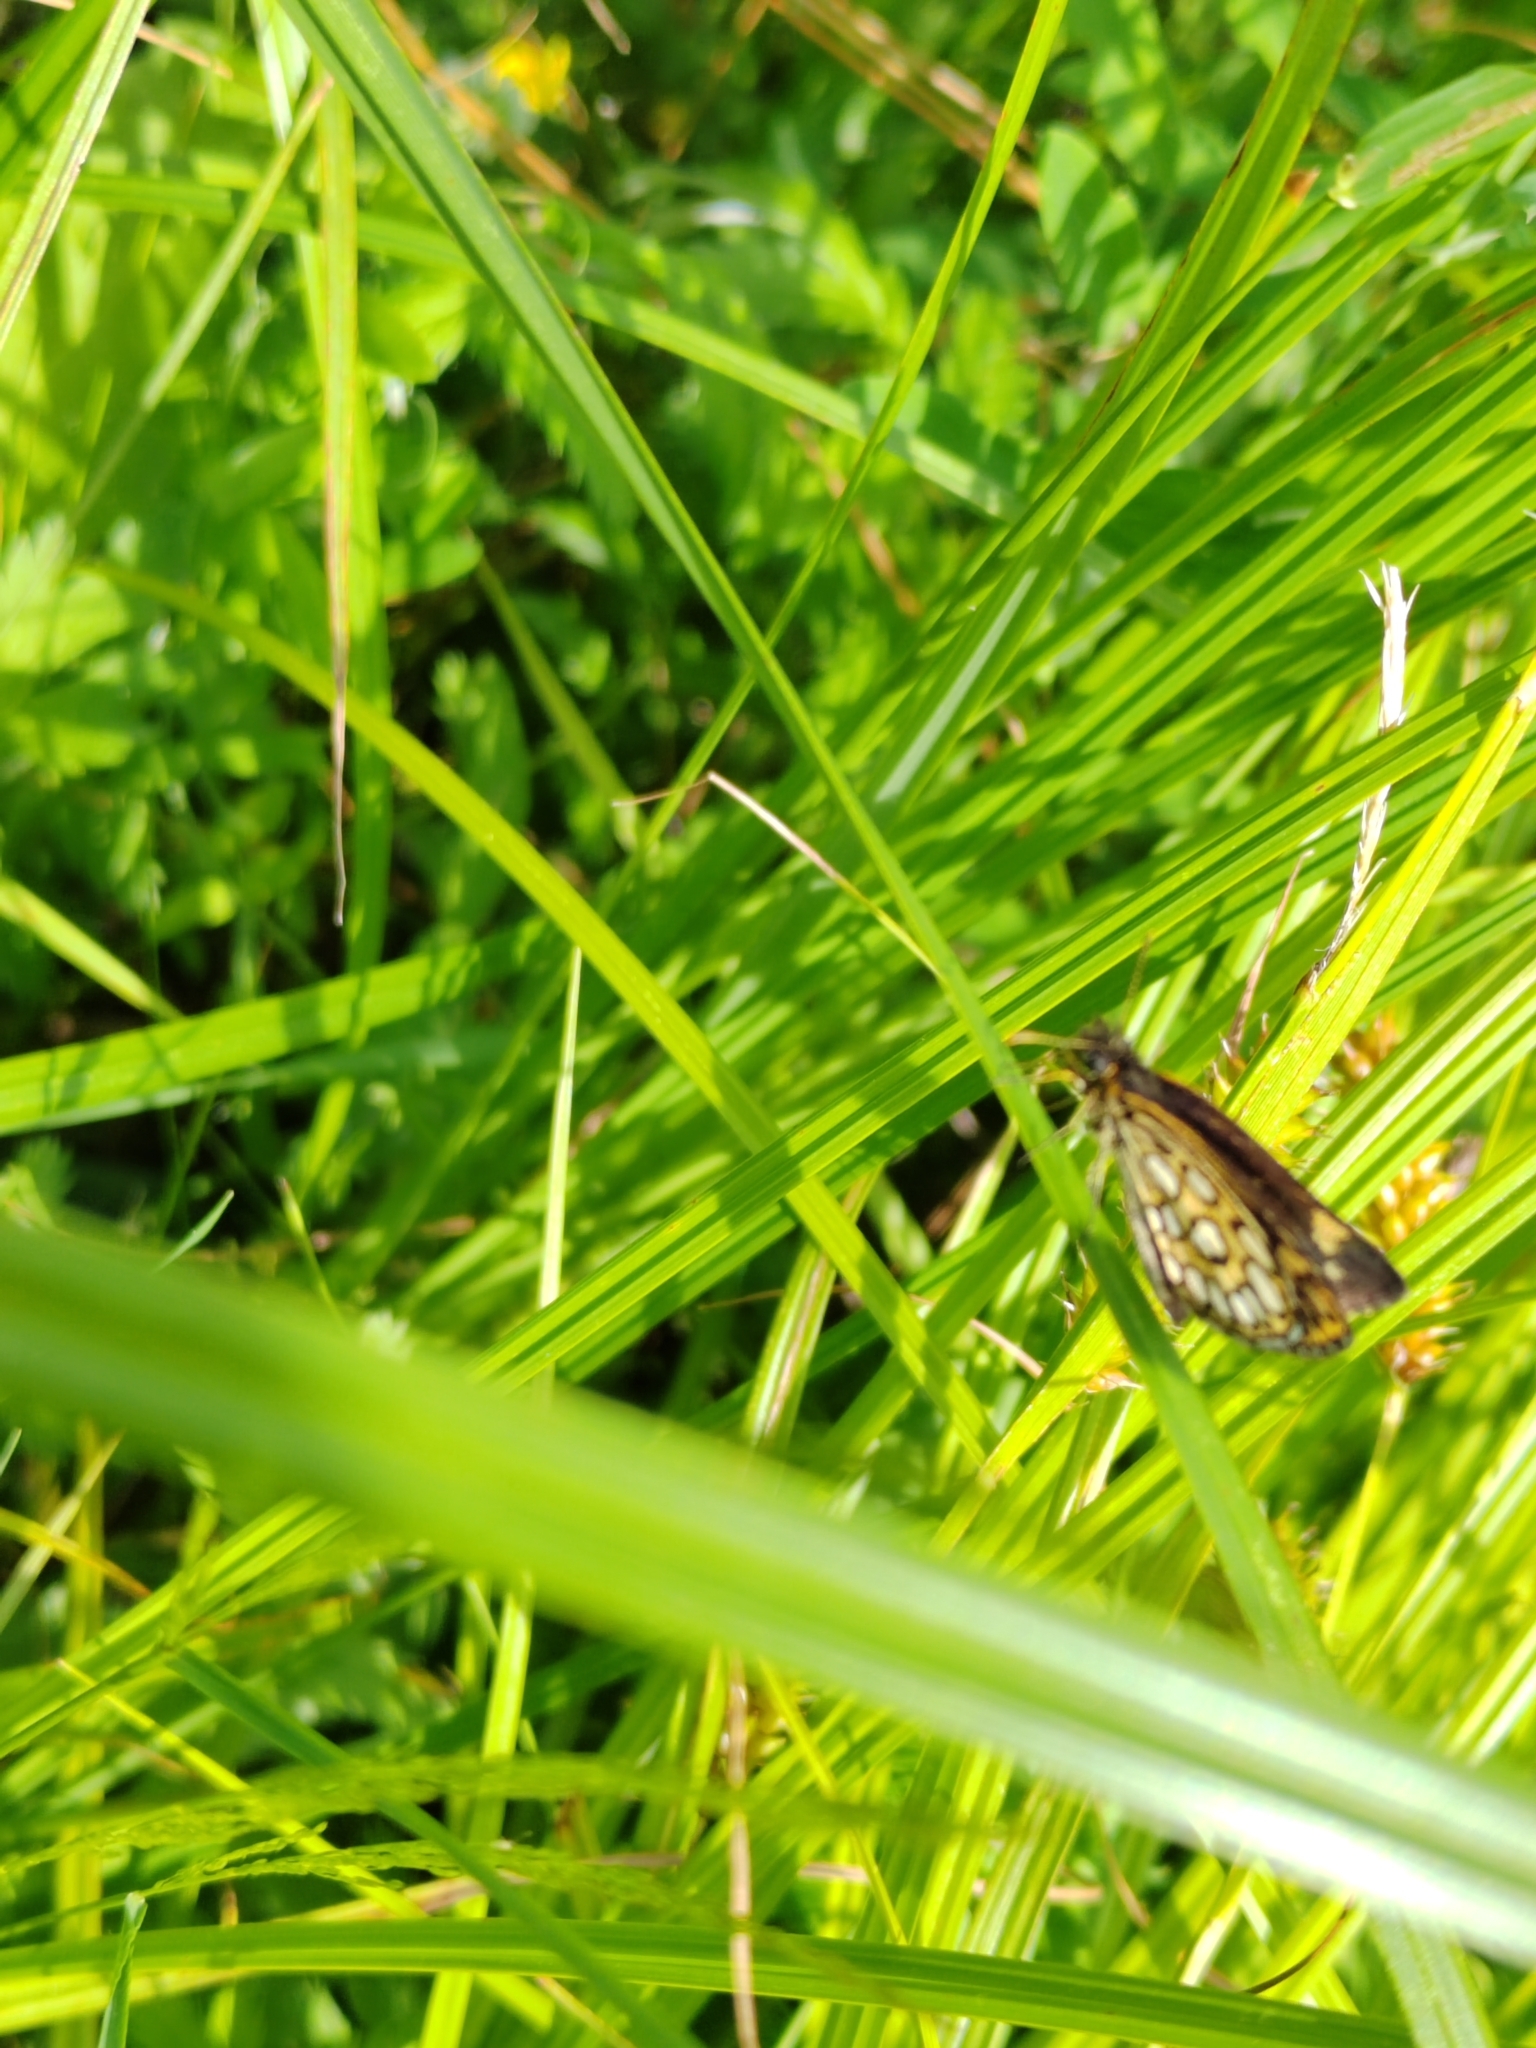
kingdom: Animalia
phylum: Arthropoda
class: Insecta
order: Lepidoptera
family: Hesperiidae
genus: Heteropterus
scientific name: Heteropterus morpheus
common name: Large chequered skipper
